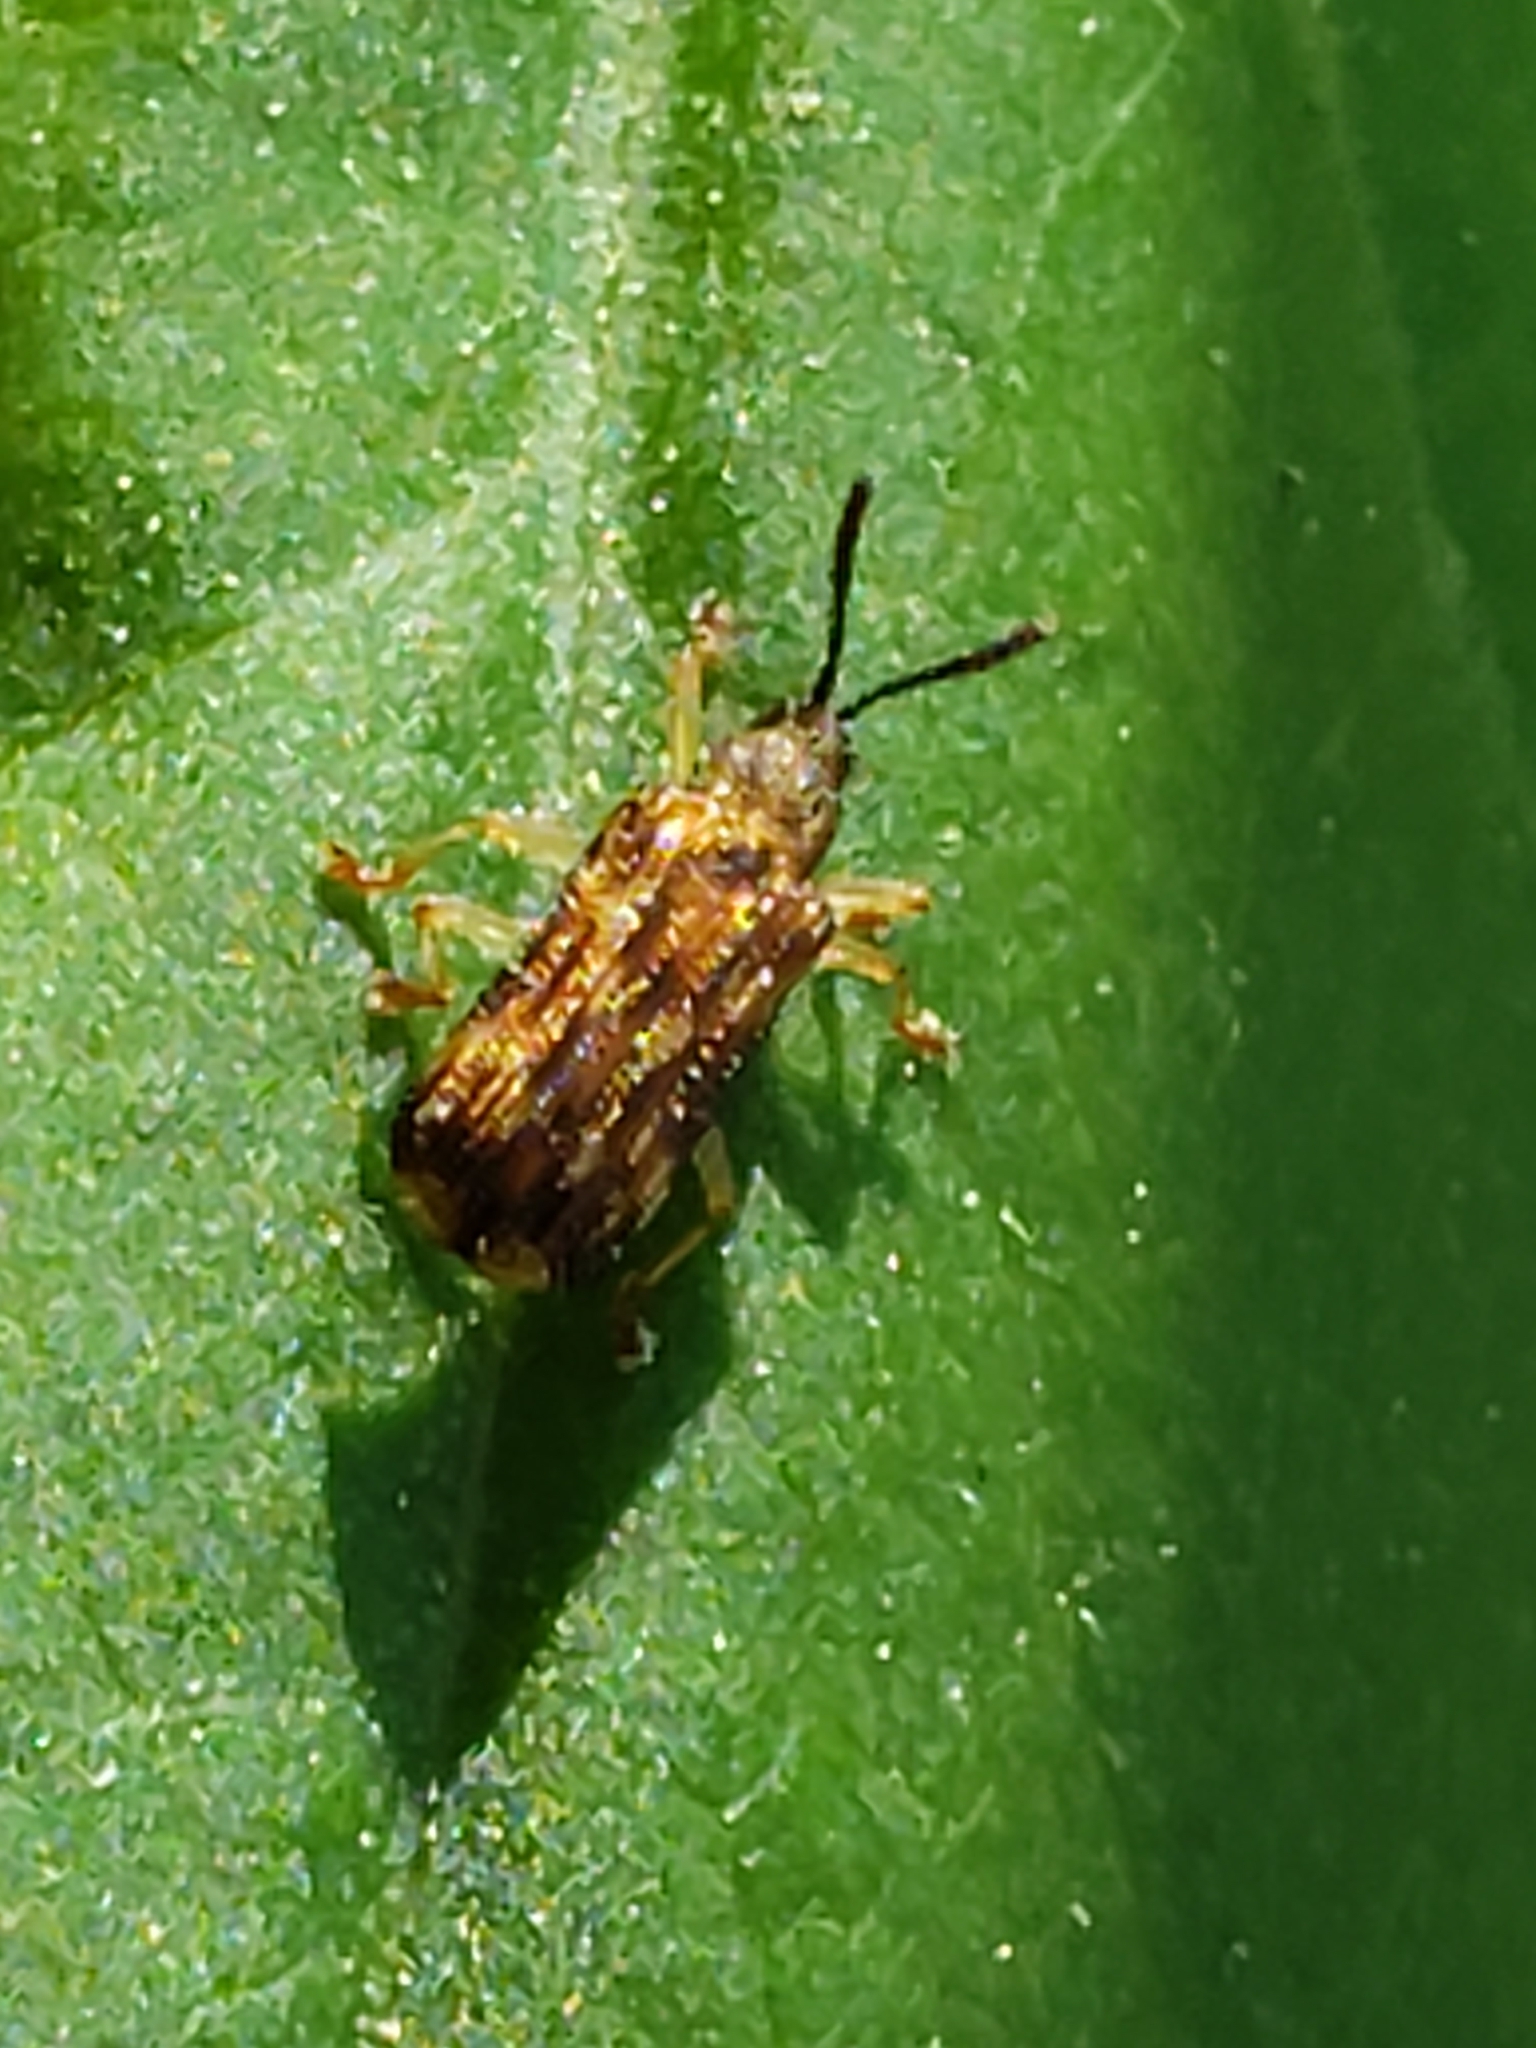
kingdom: Animalia
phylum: Arthropoda
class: Insecta
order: Coleoptera
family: Chrysomelidae
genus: Sumitrosis
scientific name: Sumitrosis inaequalis
